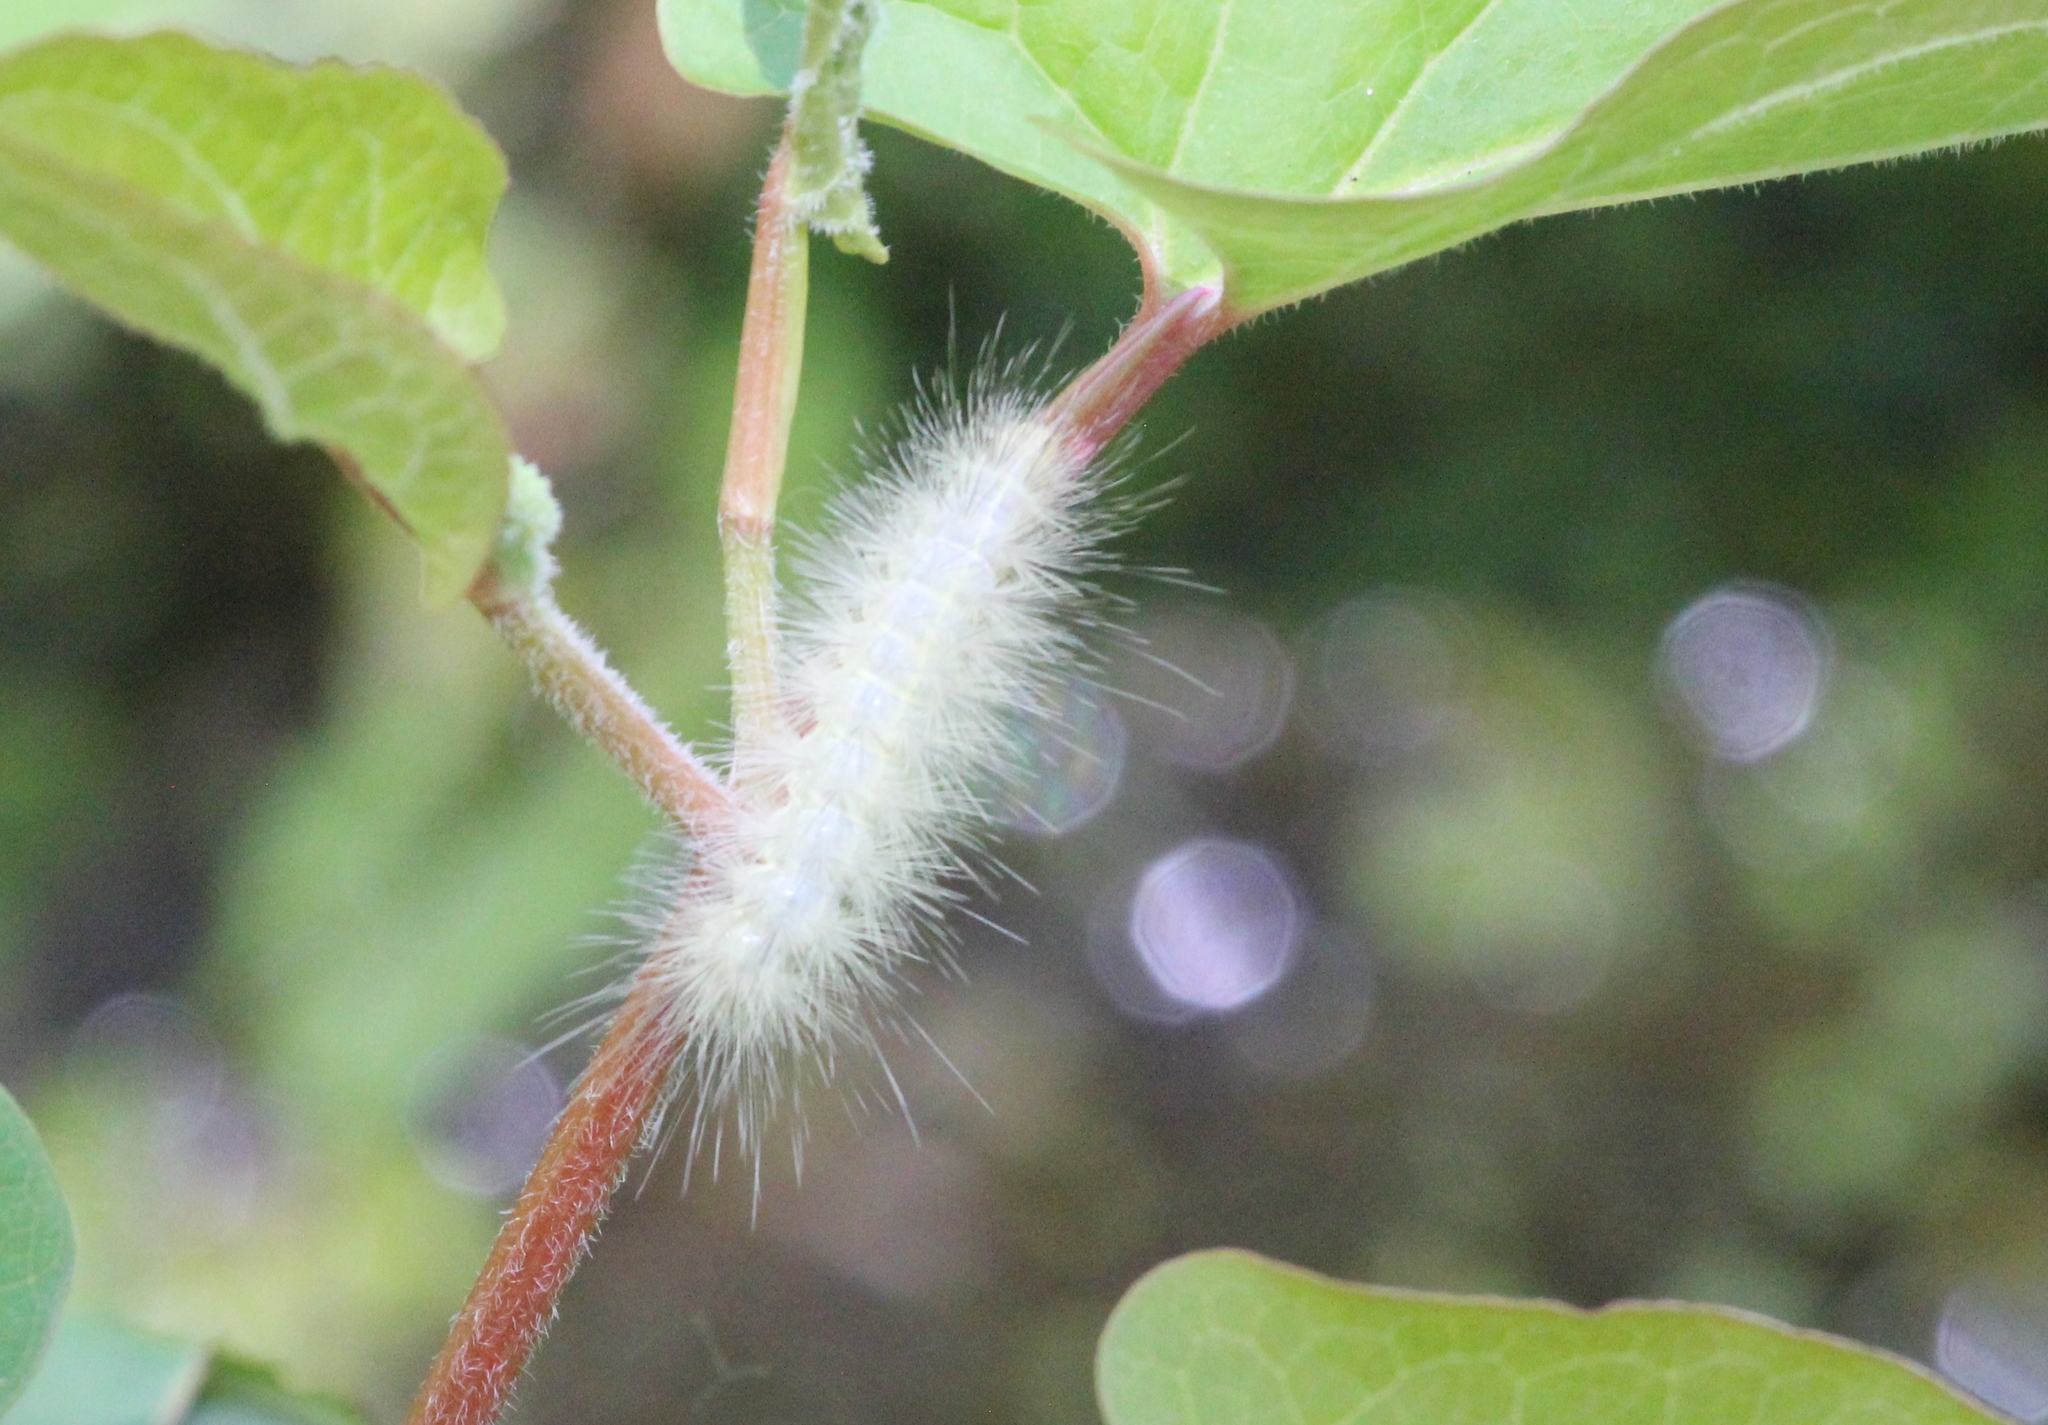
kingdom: Animalia
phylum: Arthropoda
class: Insecta
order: Lepidoptera
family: Erebidae
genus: Spilosoma
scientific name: Spilosoma virginica
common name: Virginia tiger moth
